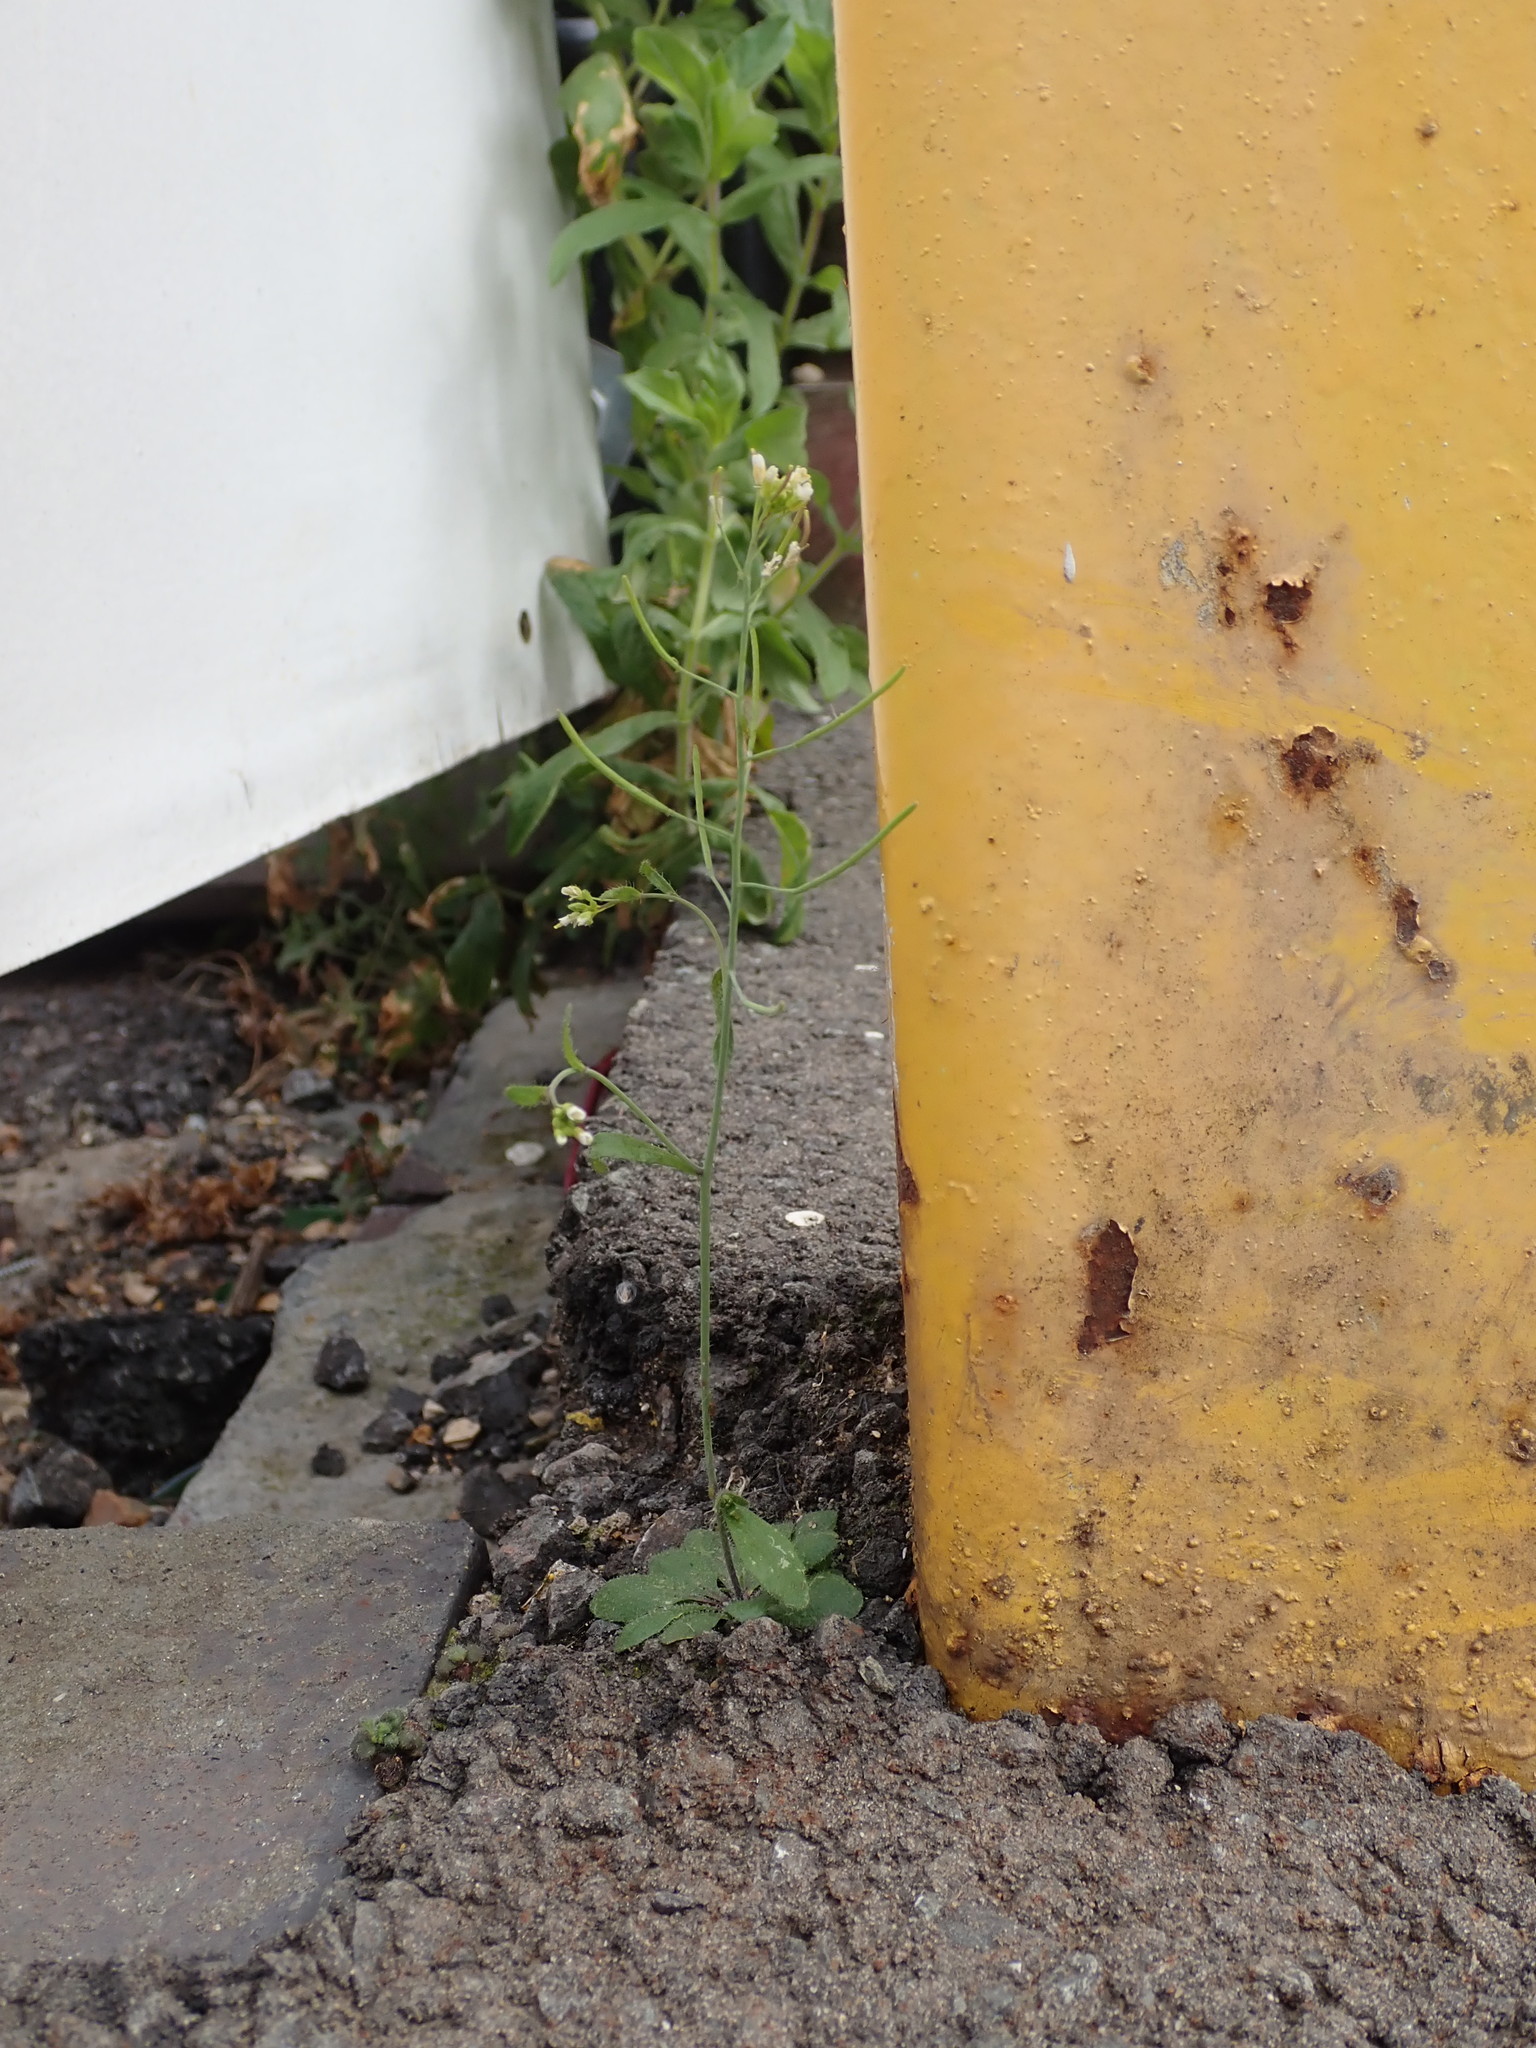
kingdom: Plantae
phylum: Tracheophyta
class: Magnoliopsida
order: Brassicales
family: Brassicaceae
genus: Arabidopsis
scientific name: Arabidopsis thaliana
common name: Thale cress
